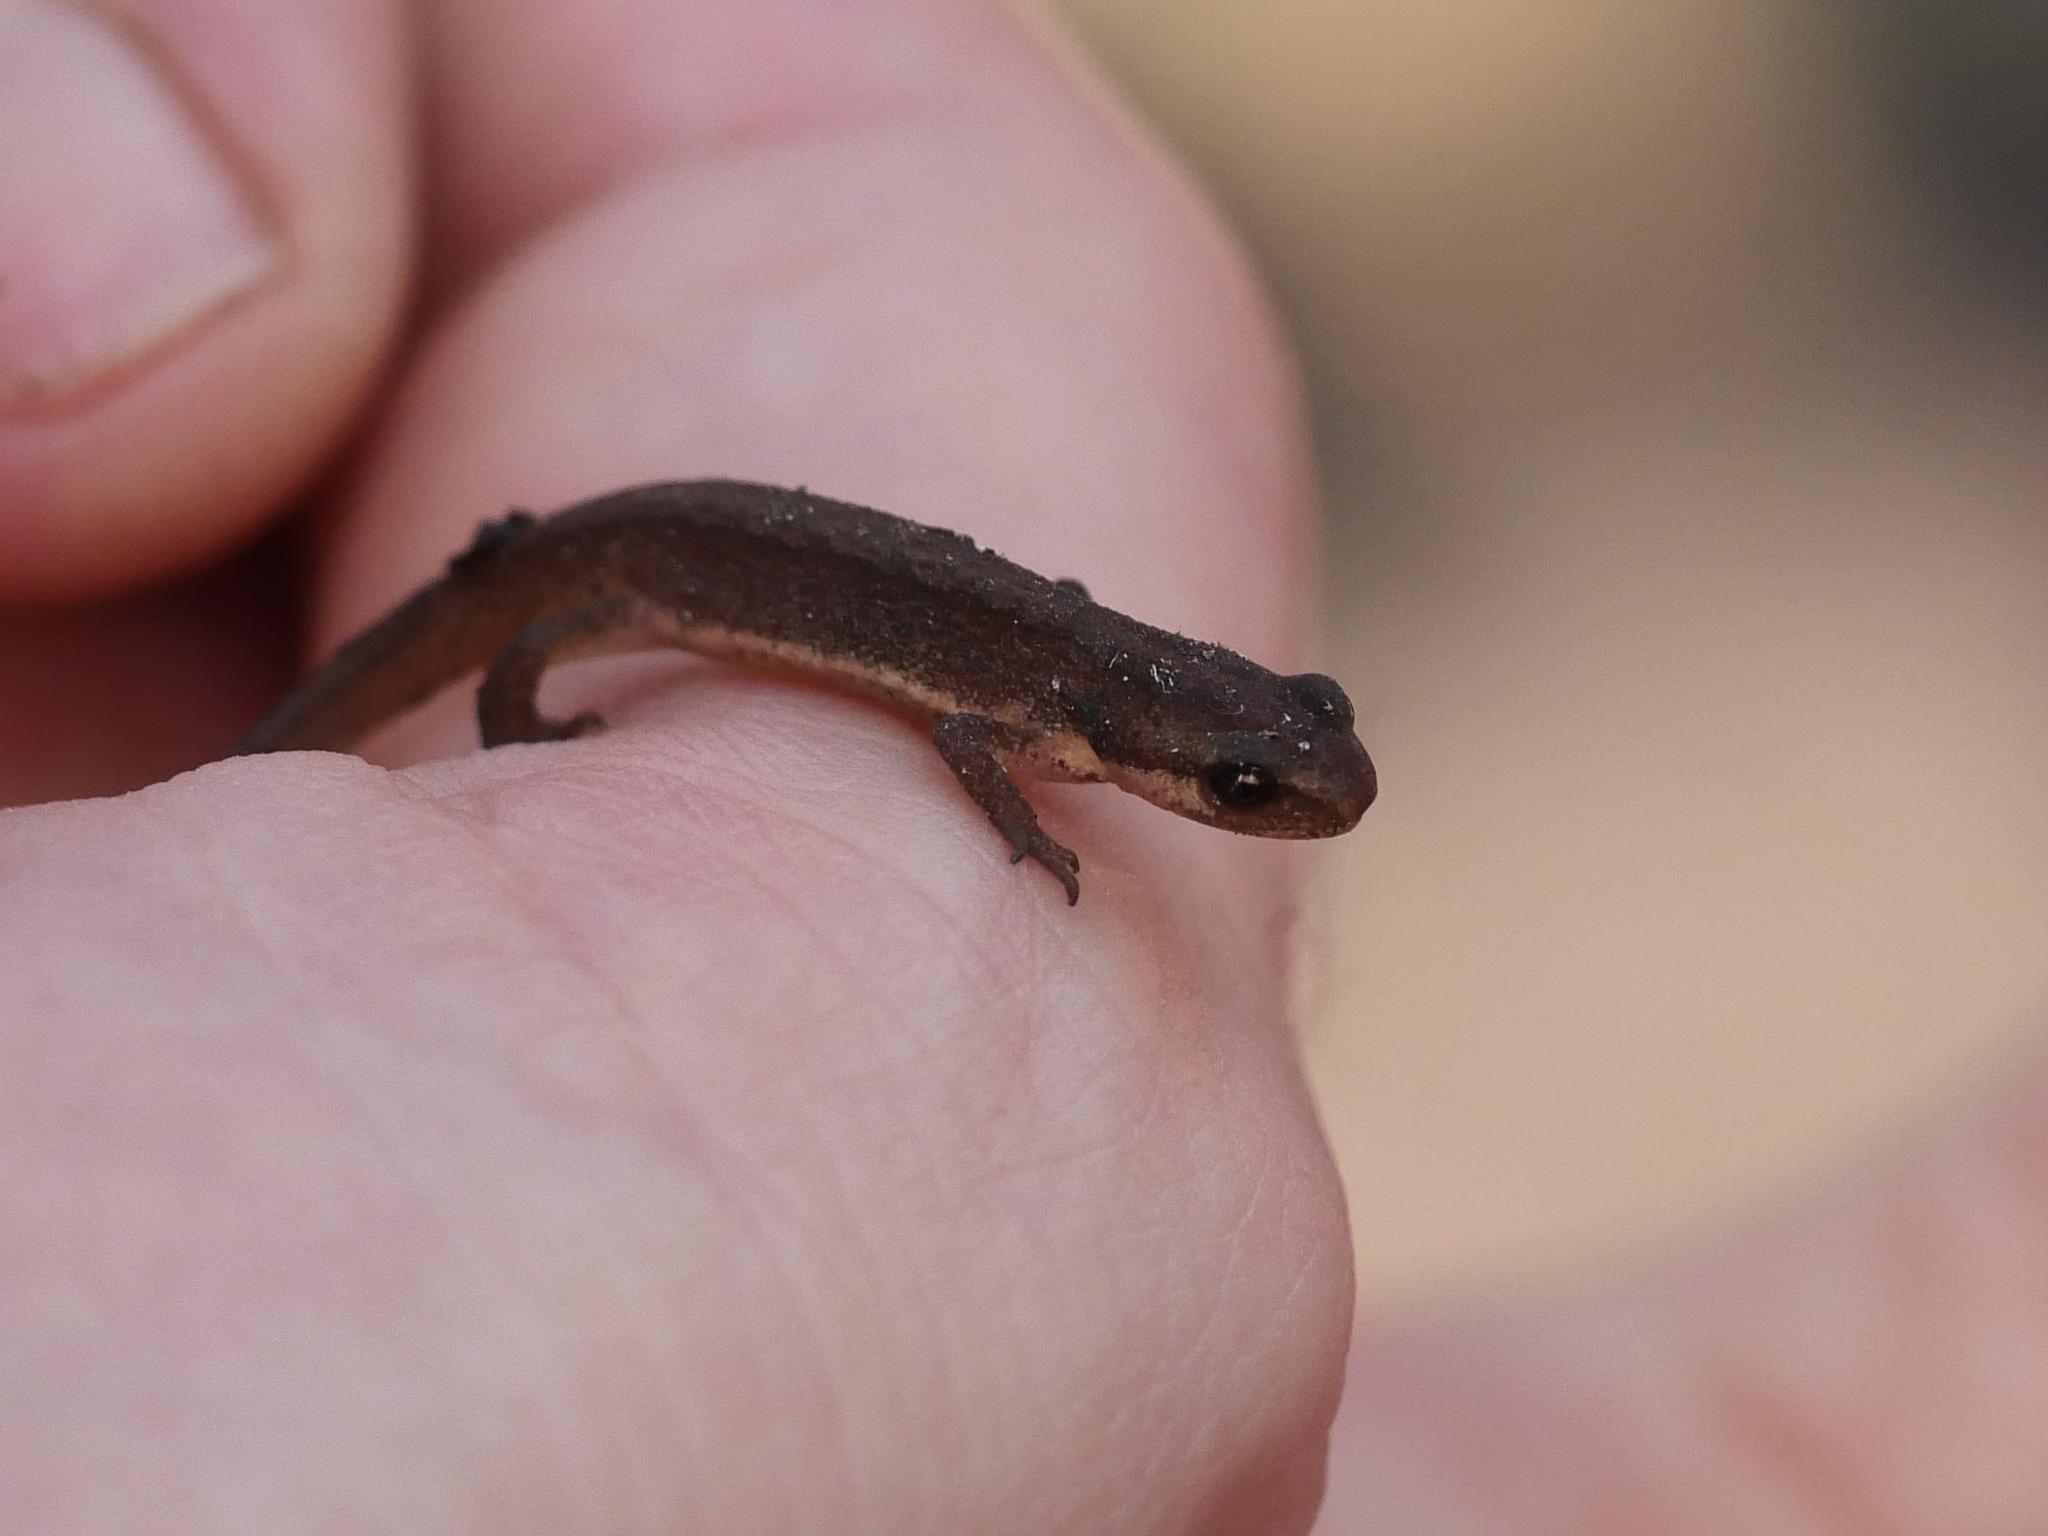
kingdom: Animalia
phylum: Chordata
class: Amphibia
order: Caudata
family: Salamandridae
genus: Lissotriton
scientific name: Lissotriton vulgaris
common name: Smooth newt
